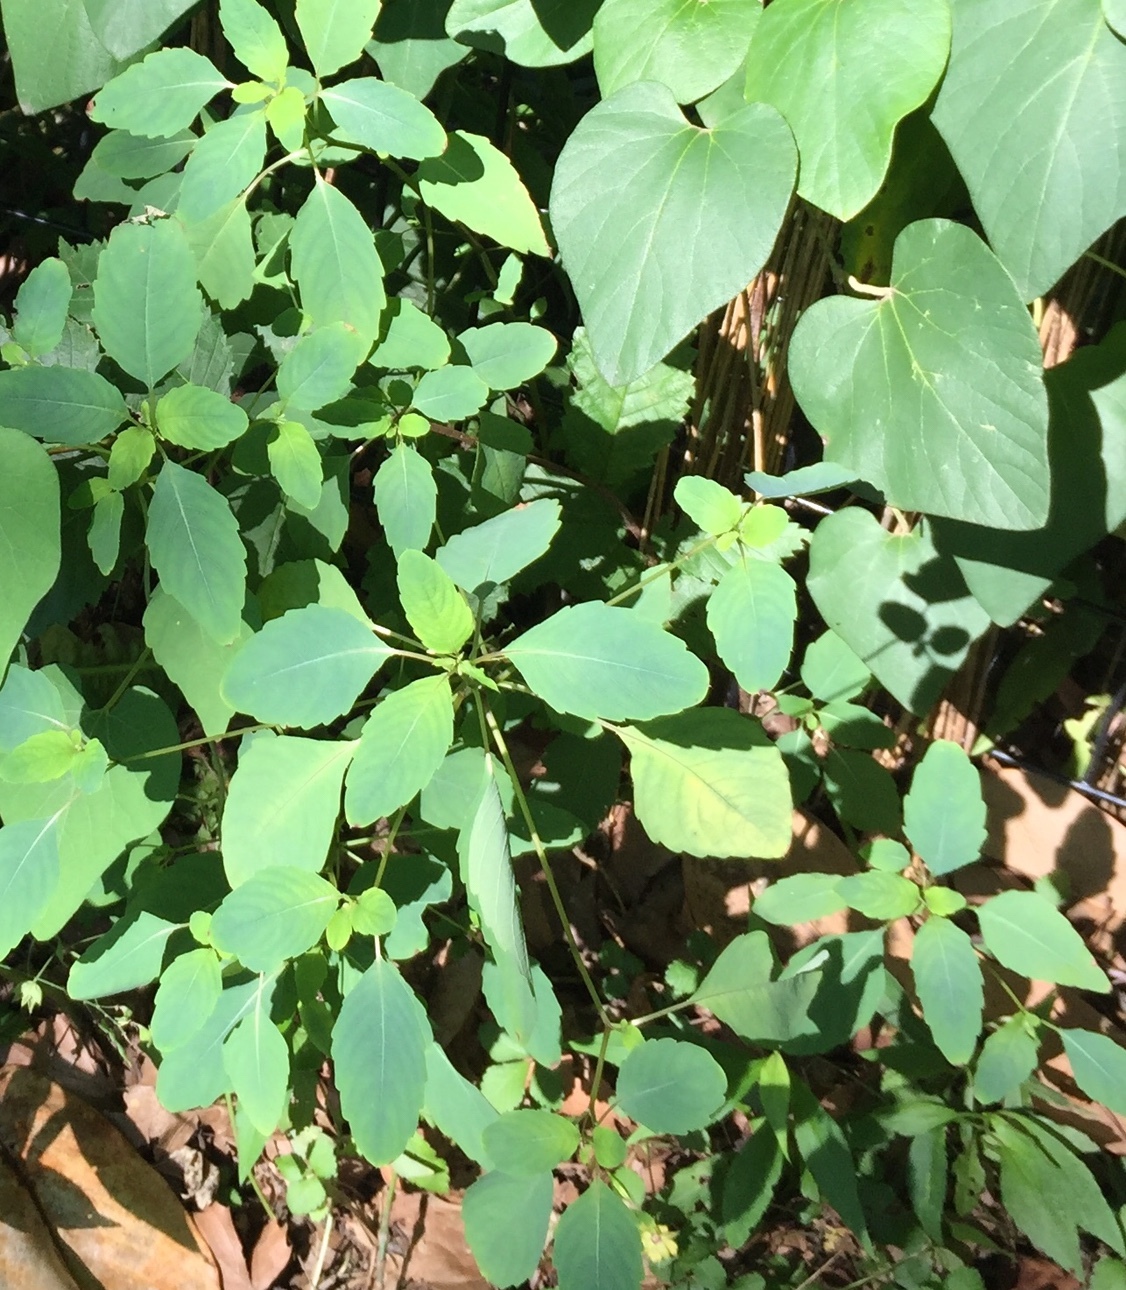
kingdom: Plantae
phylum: Tracheophyta
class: Magnoliopsida
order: Ericales
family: Balsaminaceae
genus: Impatiens
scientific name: Impatiens capensis
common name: Orange balsam
